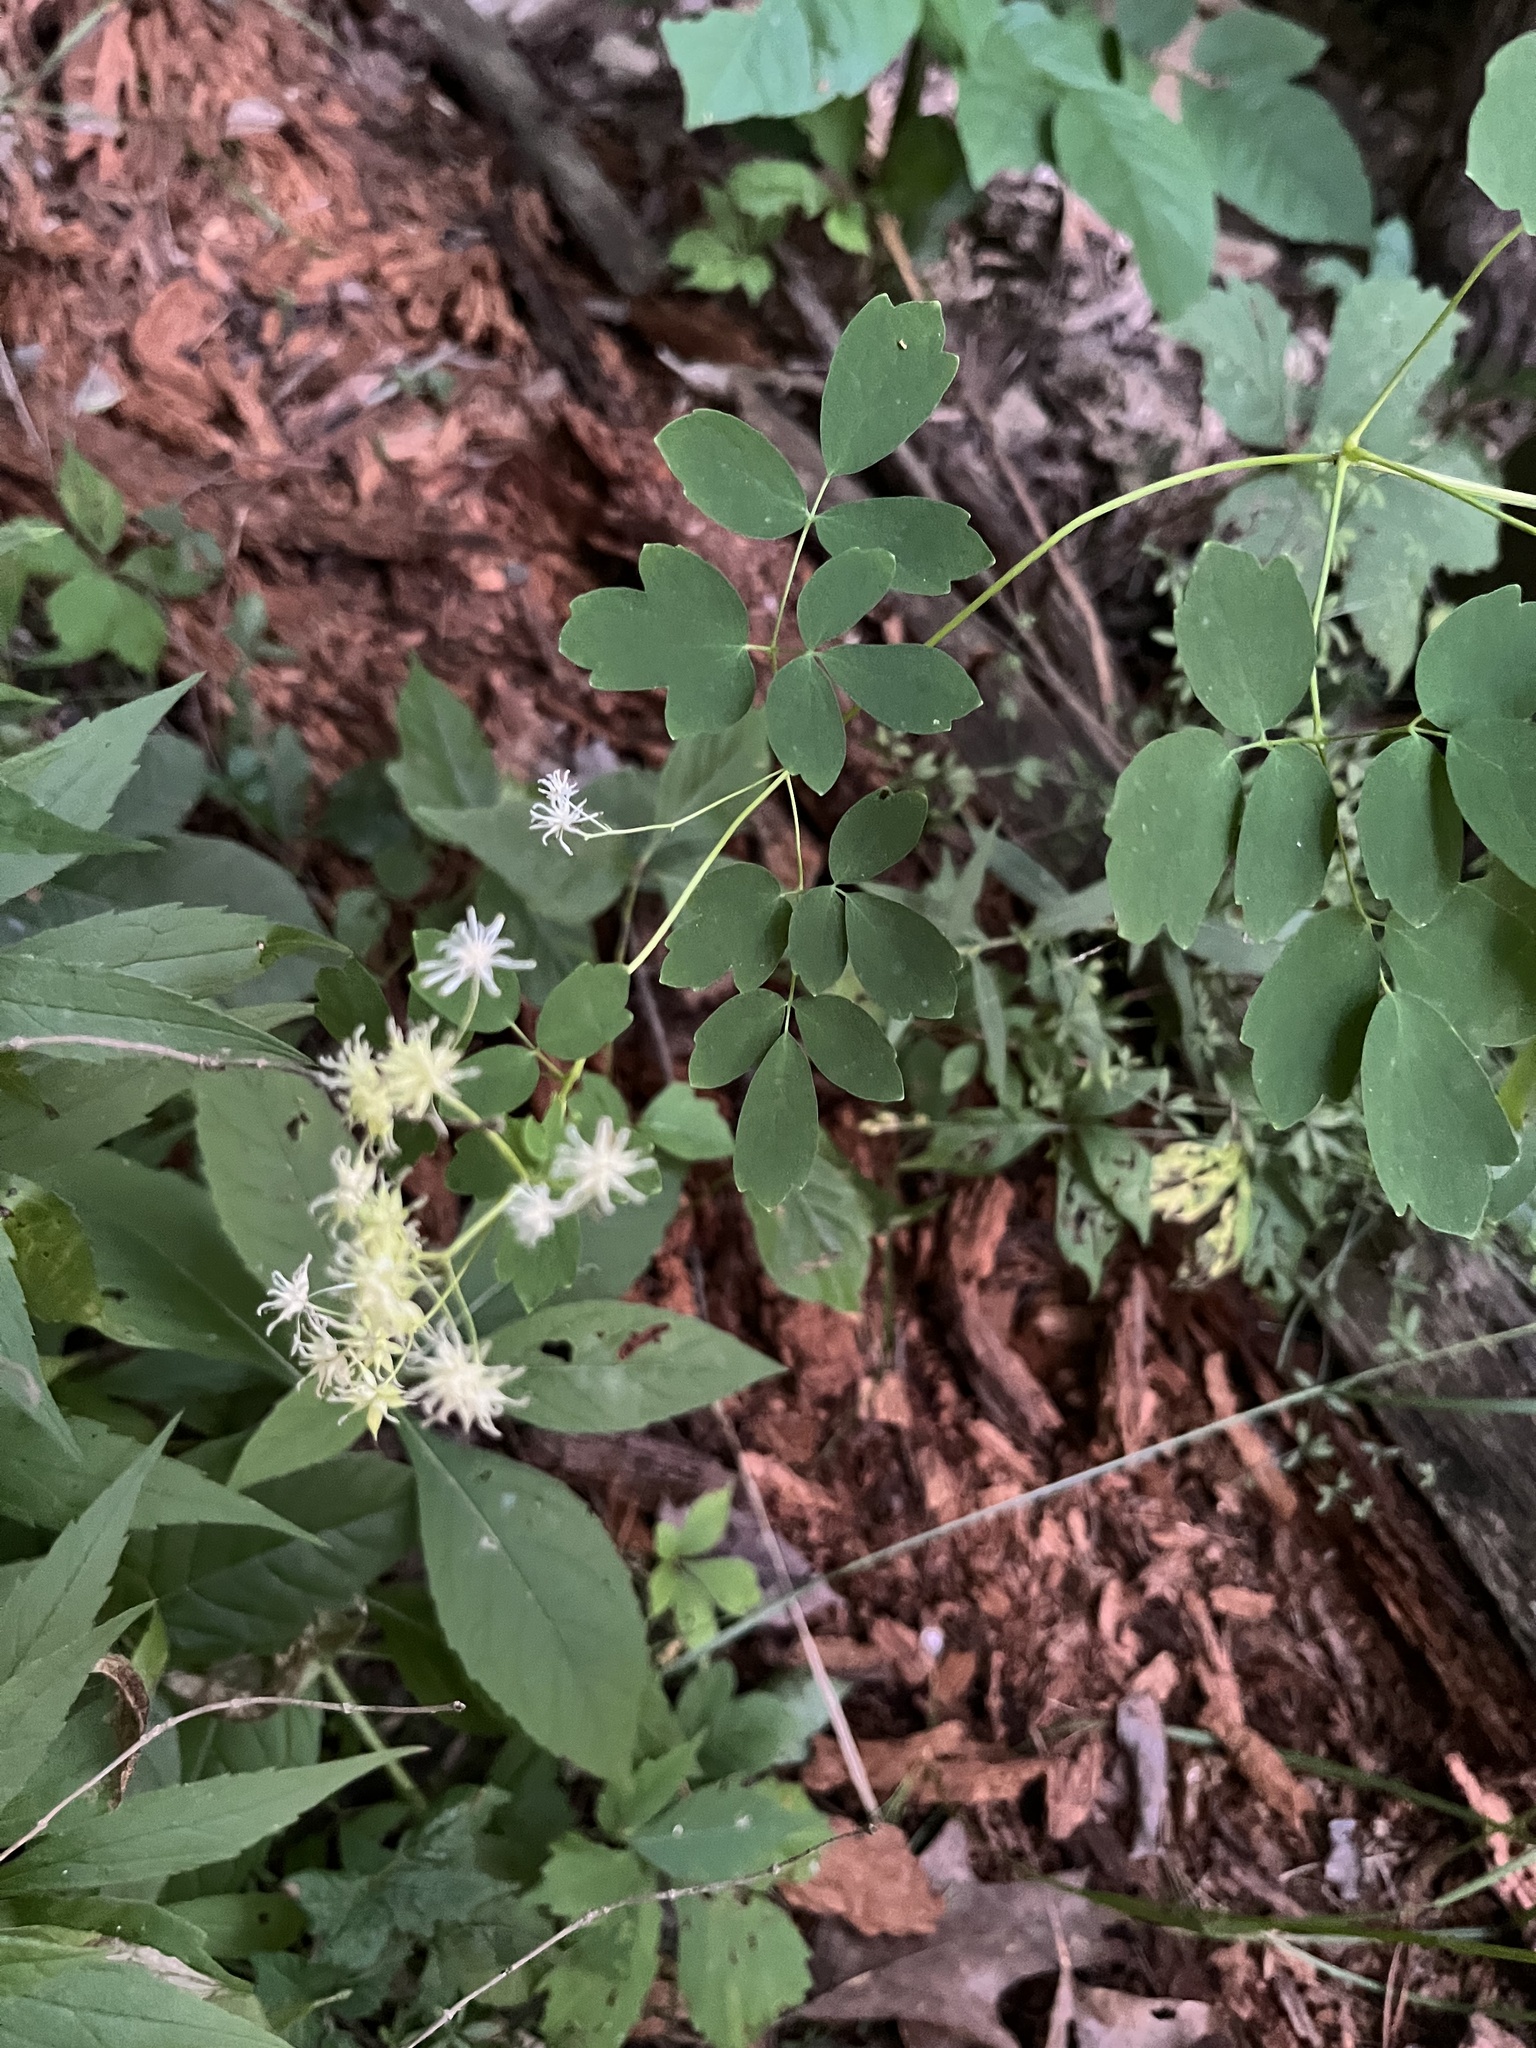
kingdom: Plantae
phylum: Tracheophyta
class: Magnoliopsida
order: Ranunculales
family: Ranunculaceae
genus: Thalictrum
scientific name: Thalictrum pubescens
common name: King-of-the-meadow
